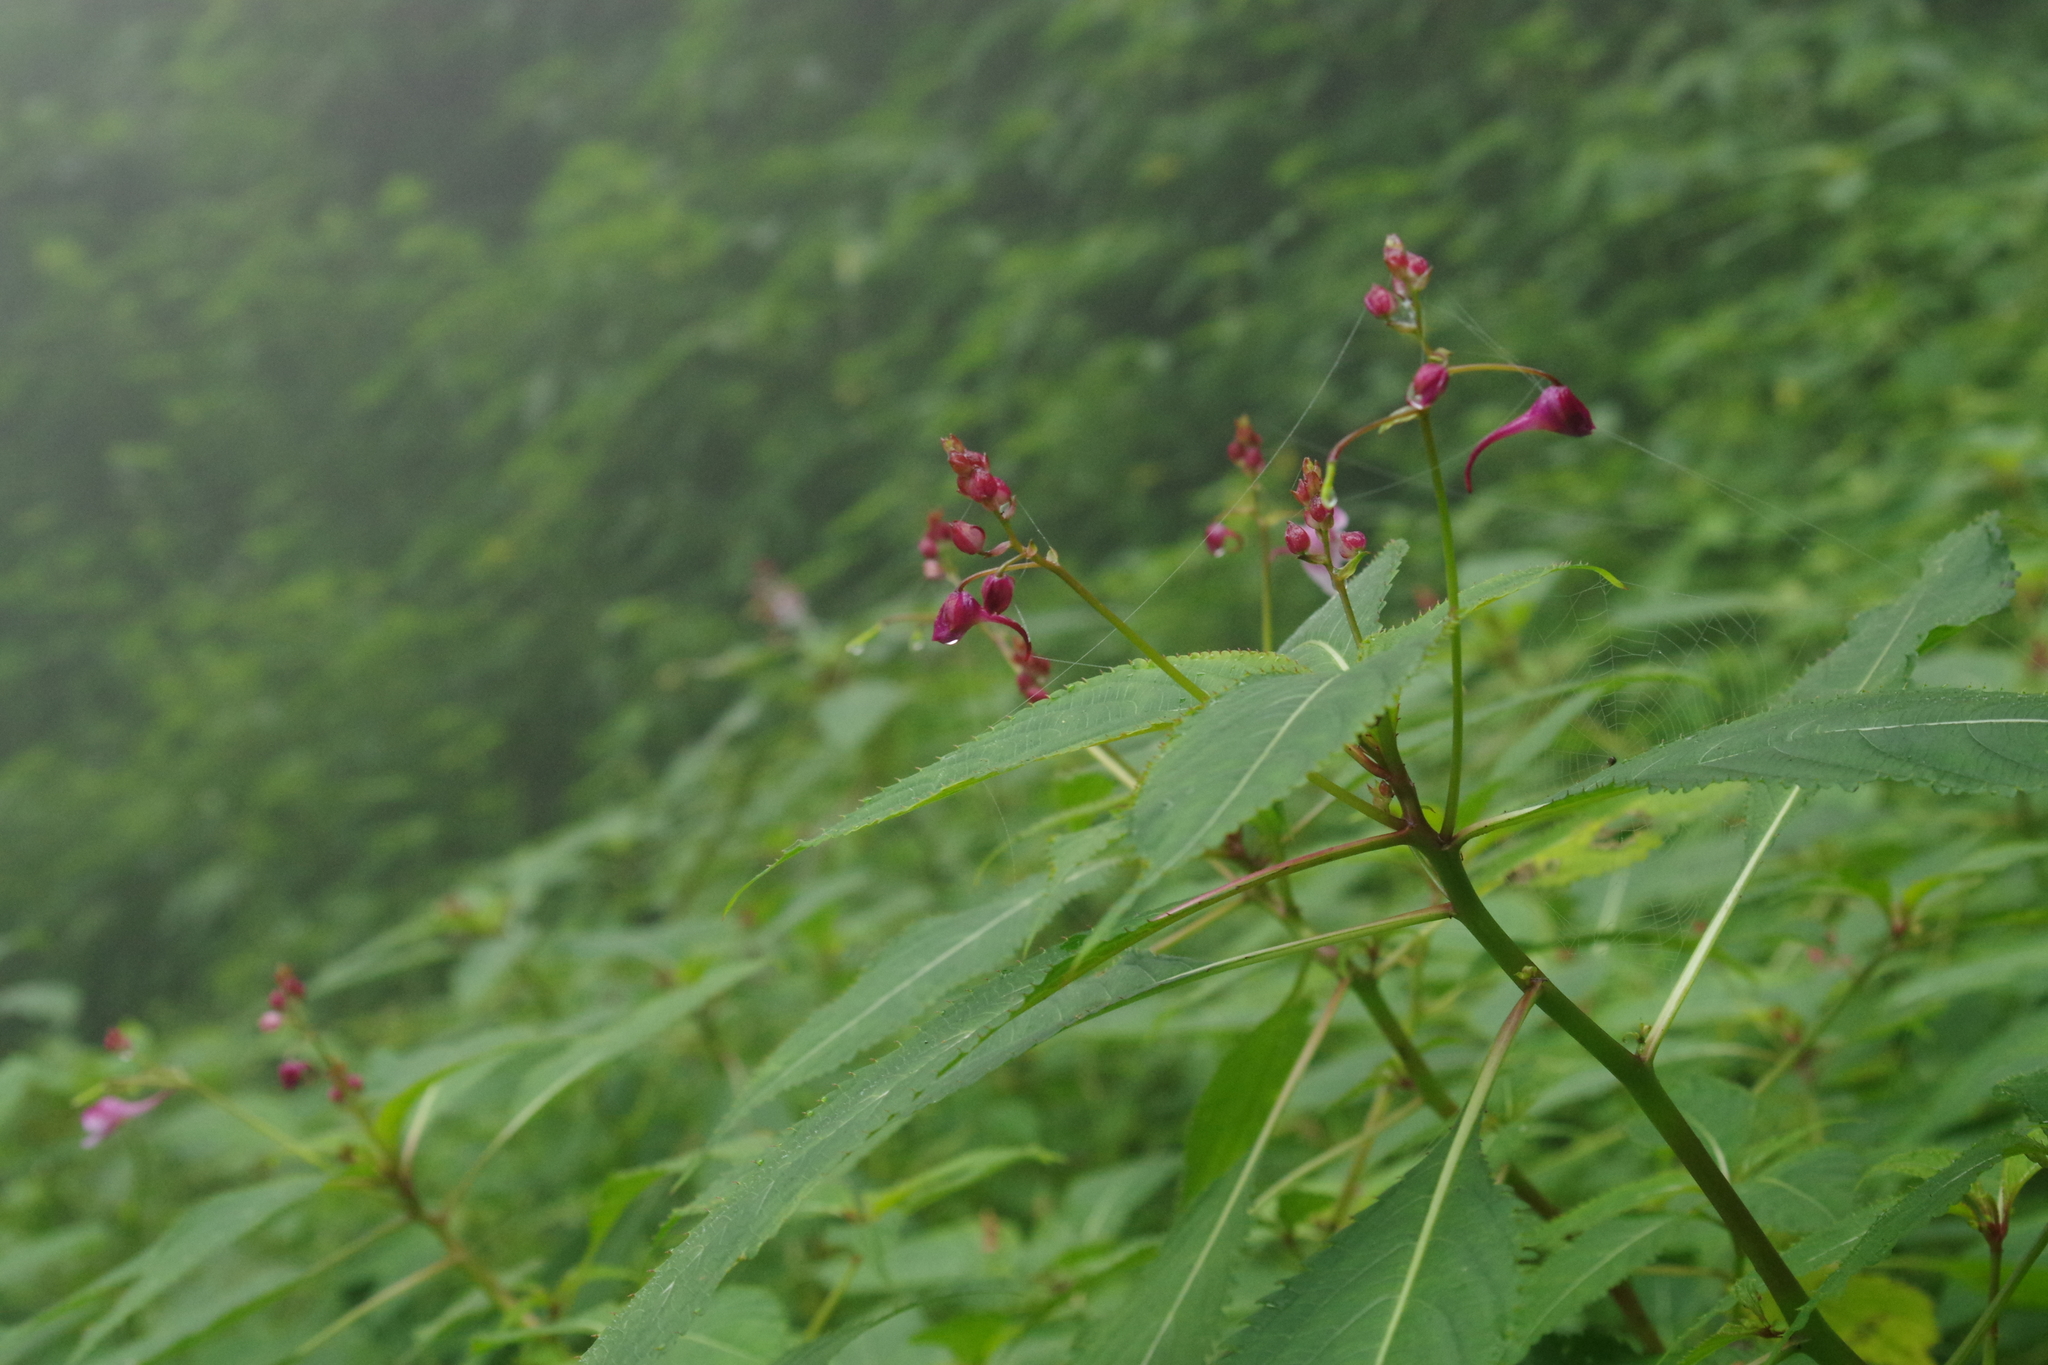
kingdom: Plantae
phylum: Tracheophyta
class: Magnoliopsida
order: Ericales
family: Balsaminaceae
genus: Impatiens
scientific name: Impatiens devolii
